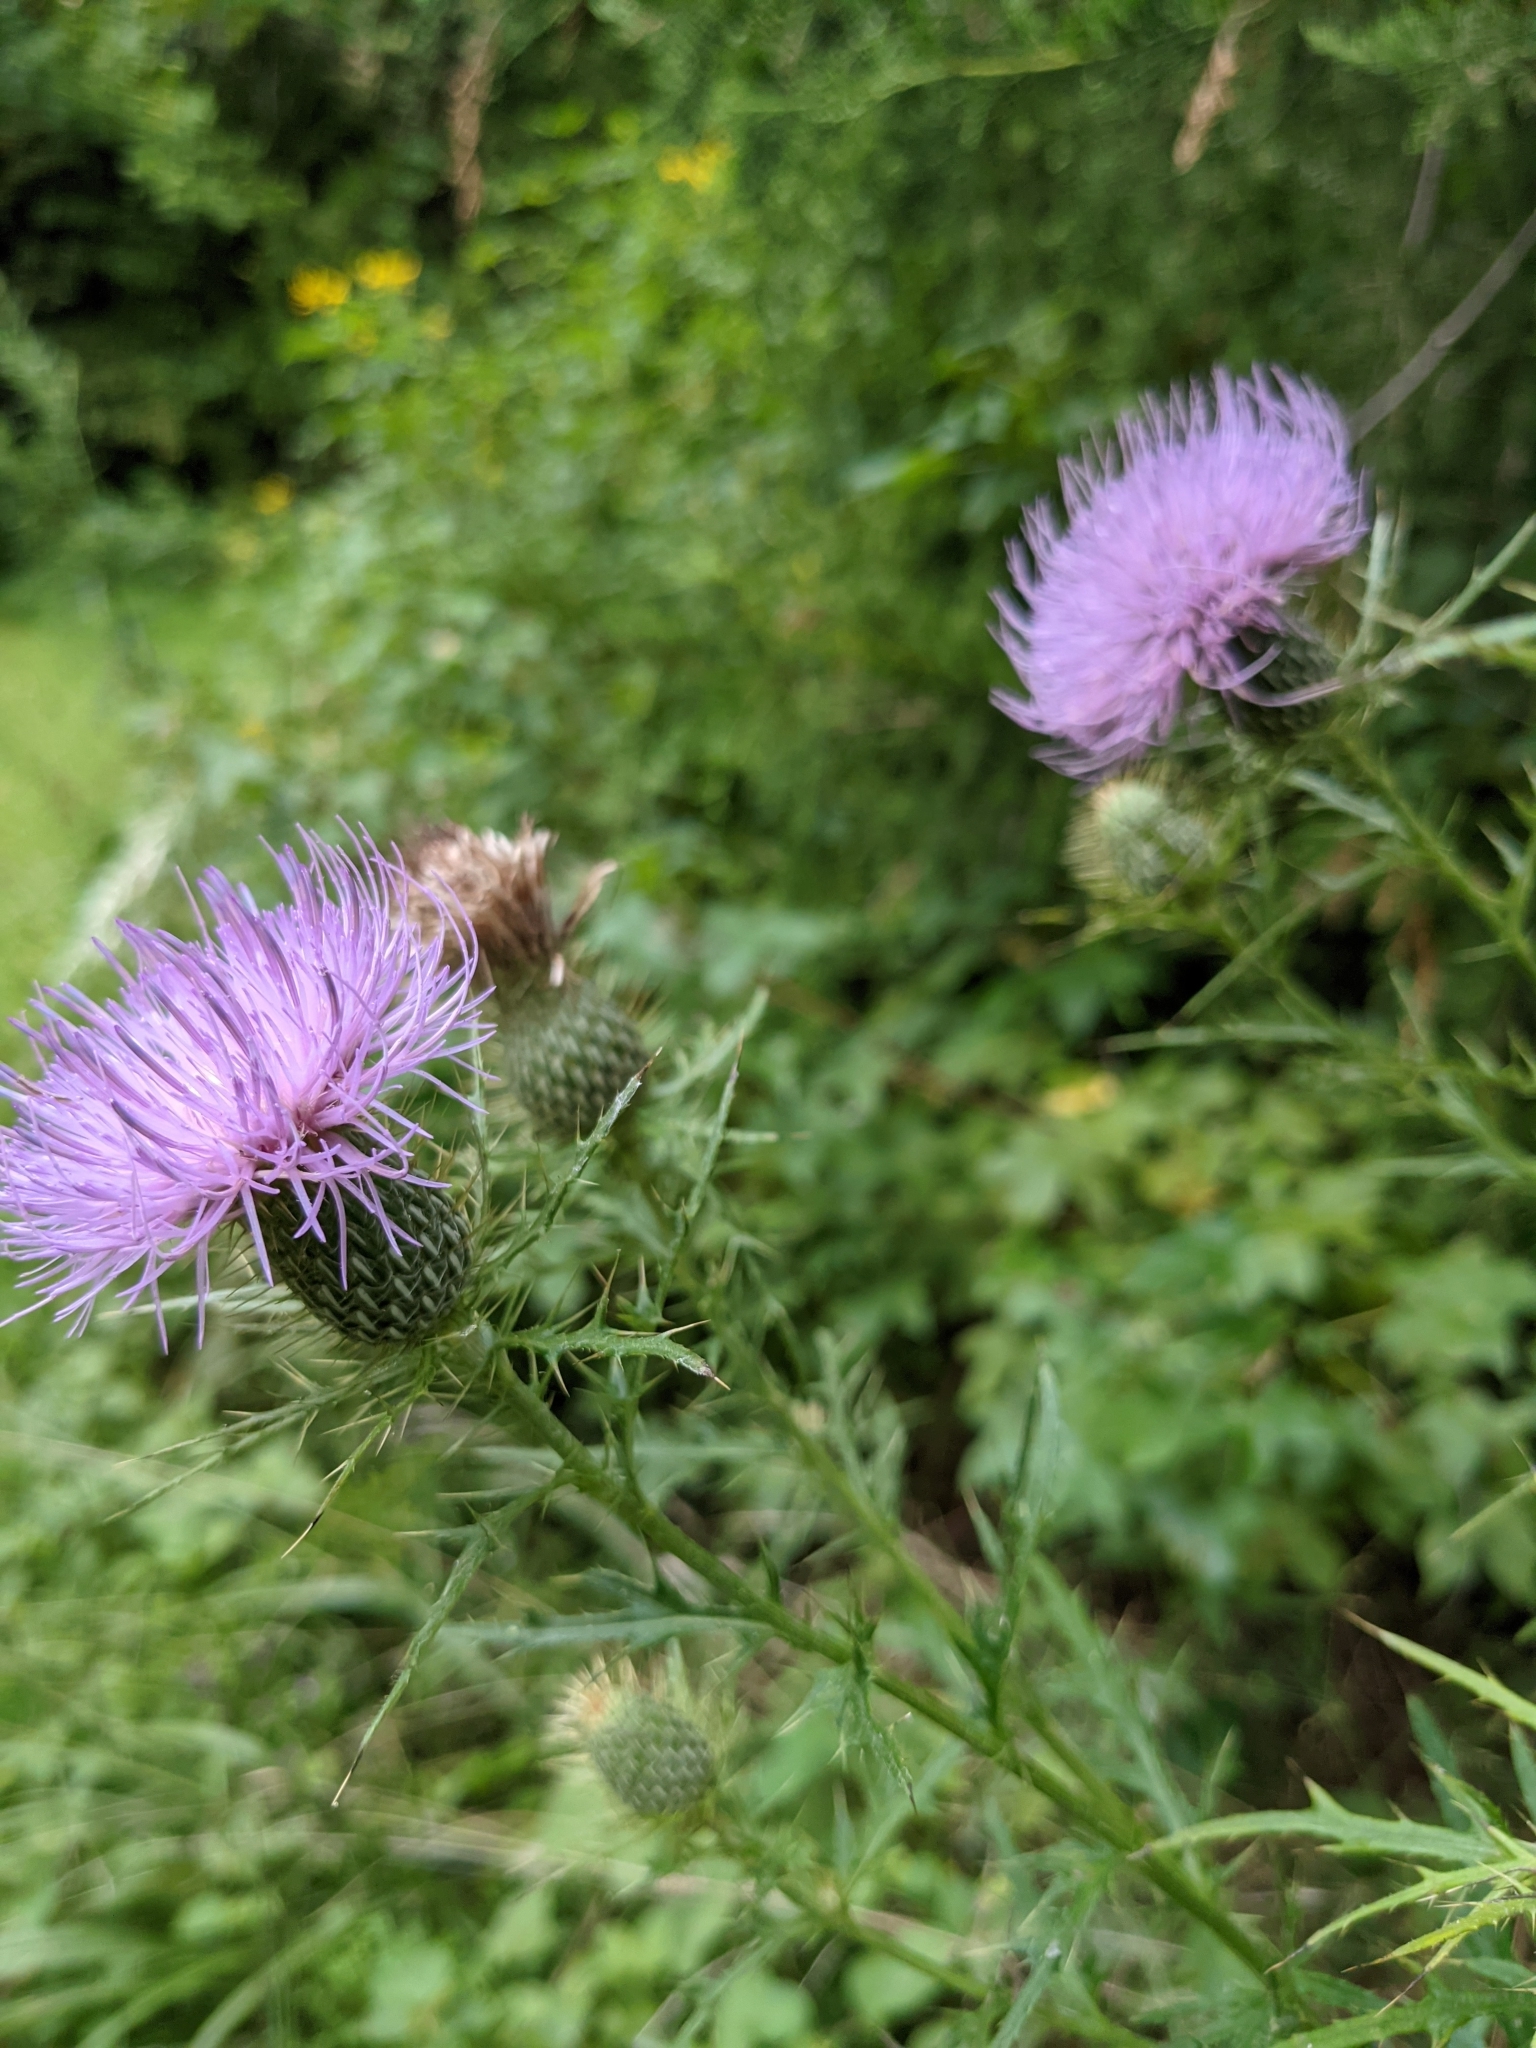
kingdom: Plantae
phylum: Tracheophyta
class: Magnoliopsida
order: Asterales
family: Asteraceae
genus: Cirsium
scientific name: Cirsium discolor
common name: Field thistle
